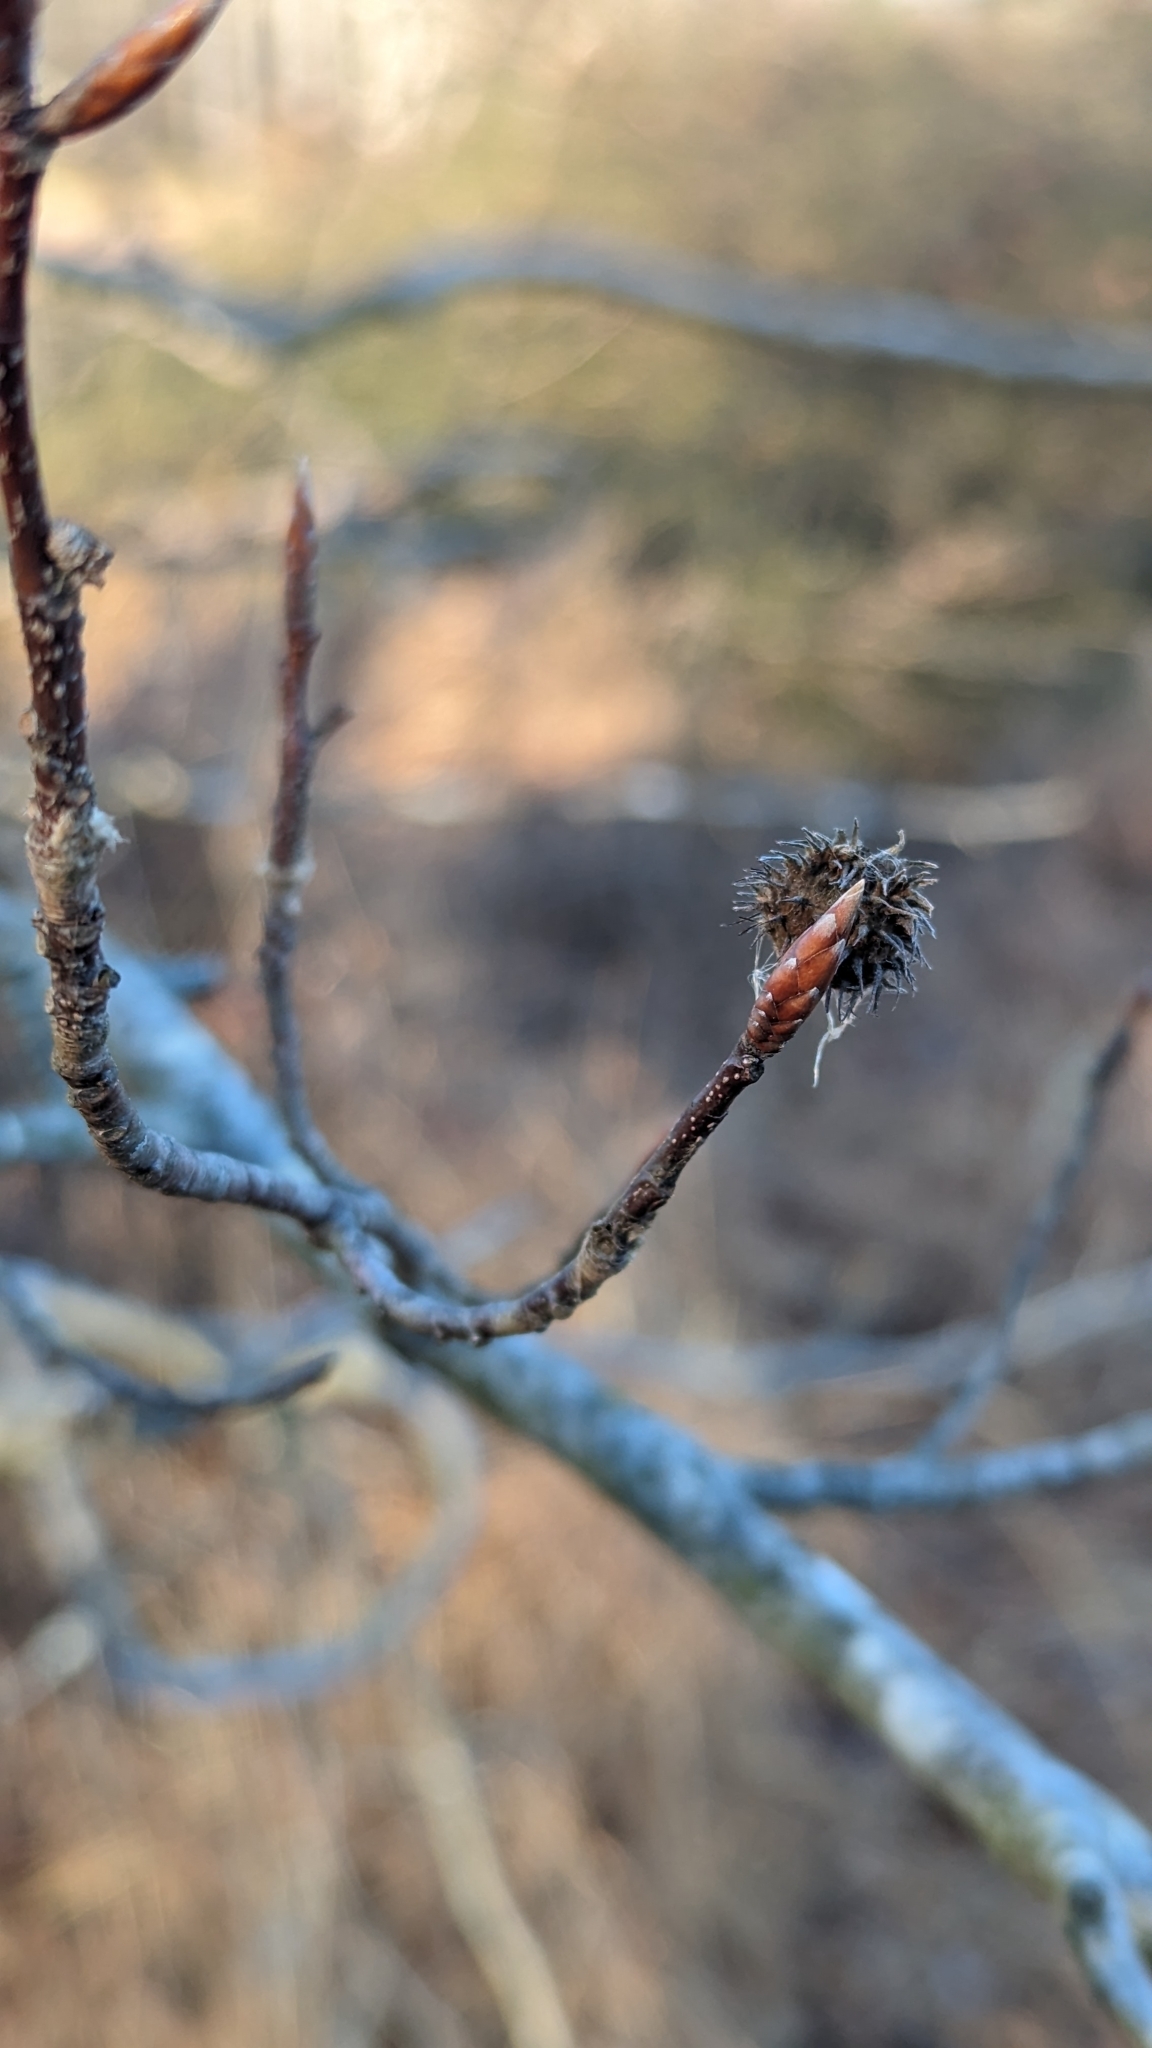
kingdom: Plantae
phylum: Tracheophyta
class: Magnoliopsida
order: Fagales
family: Fagaceae
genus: Fagus
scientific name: Fagus grandifolia
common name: American beech
